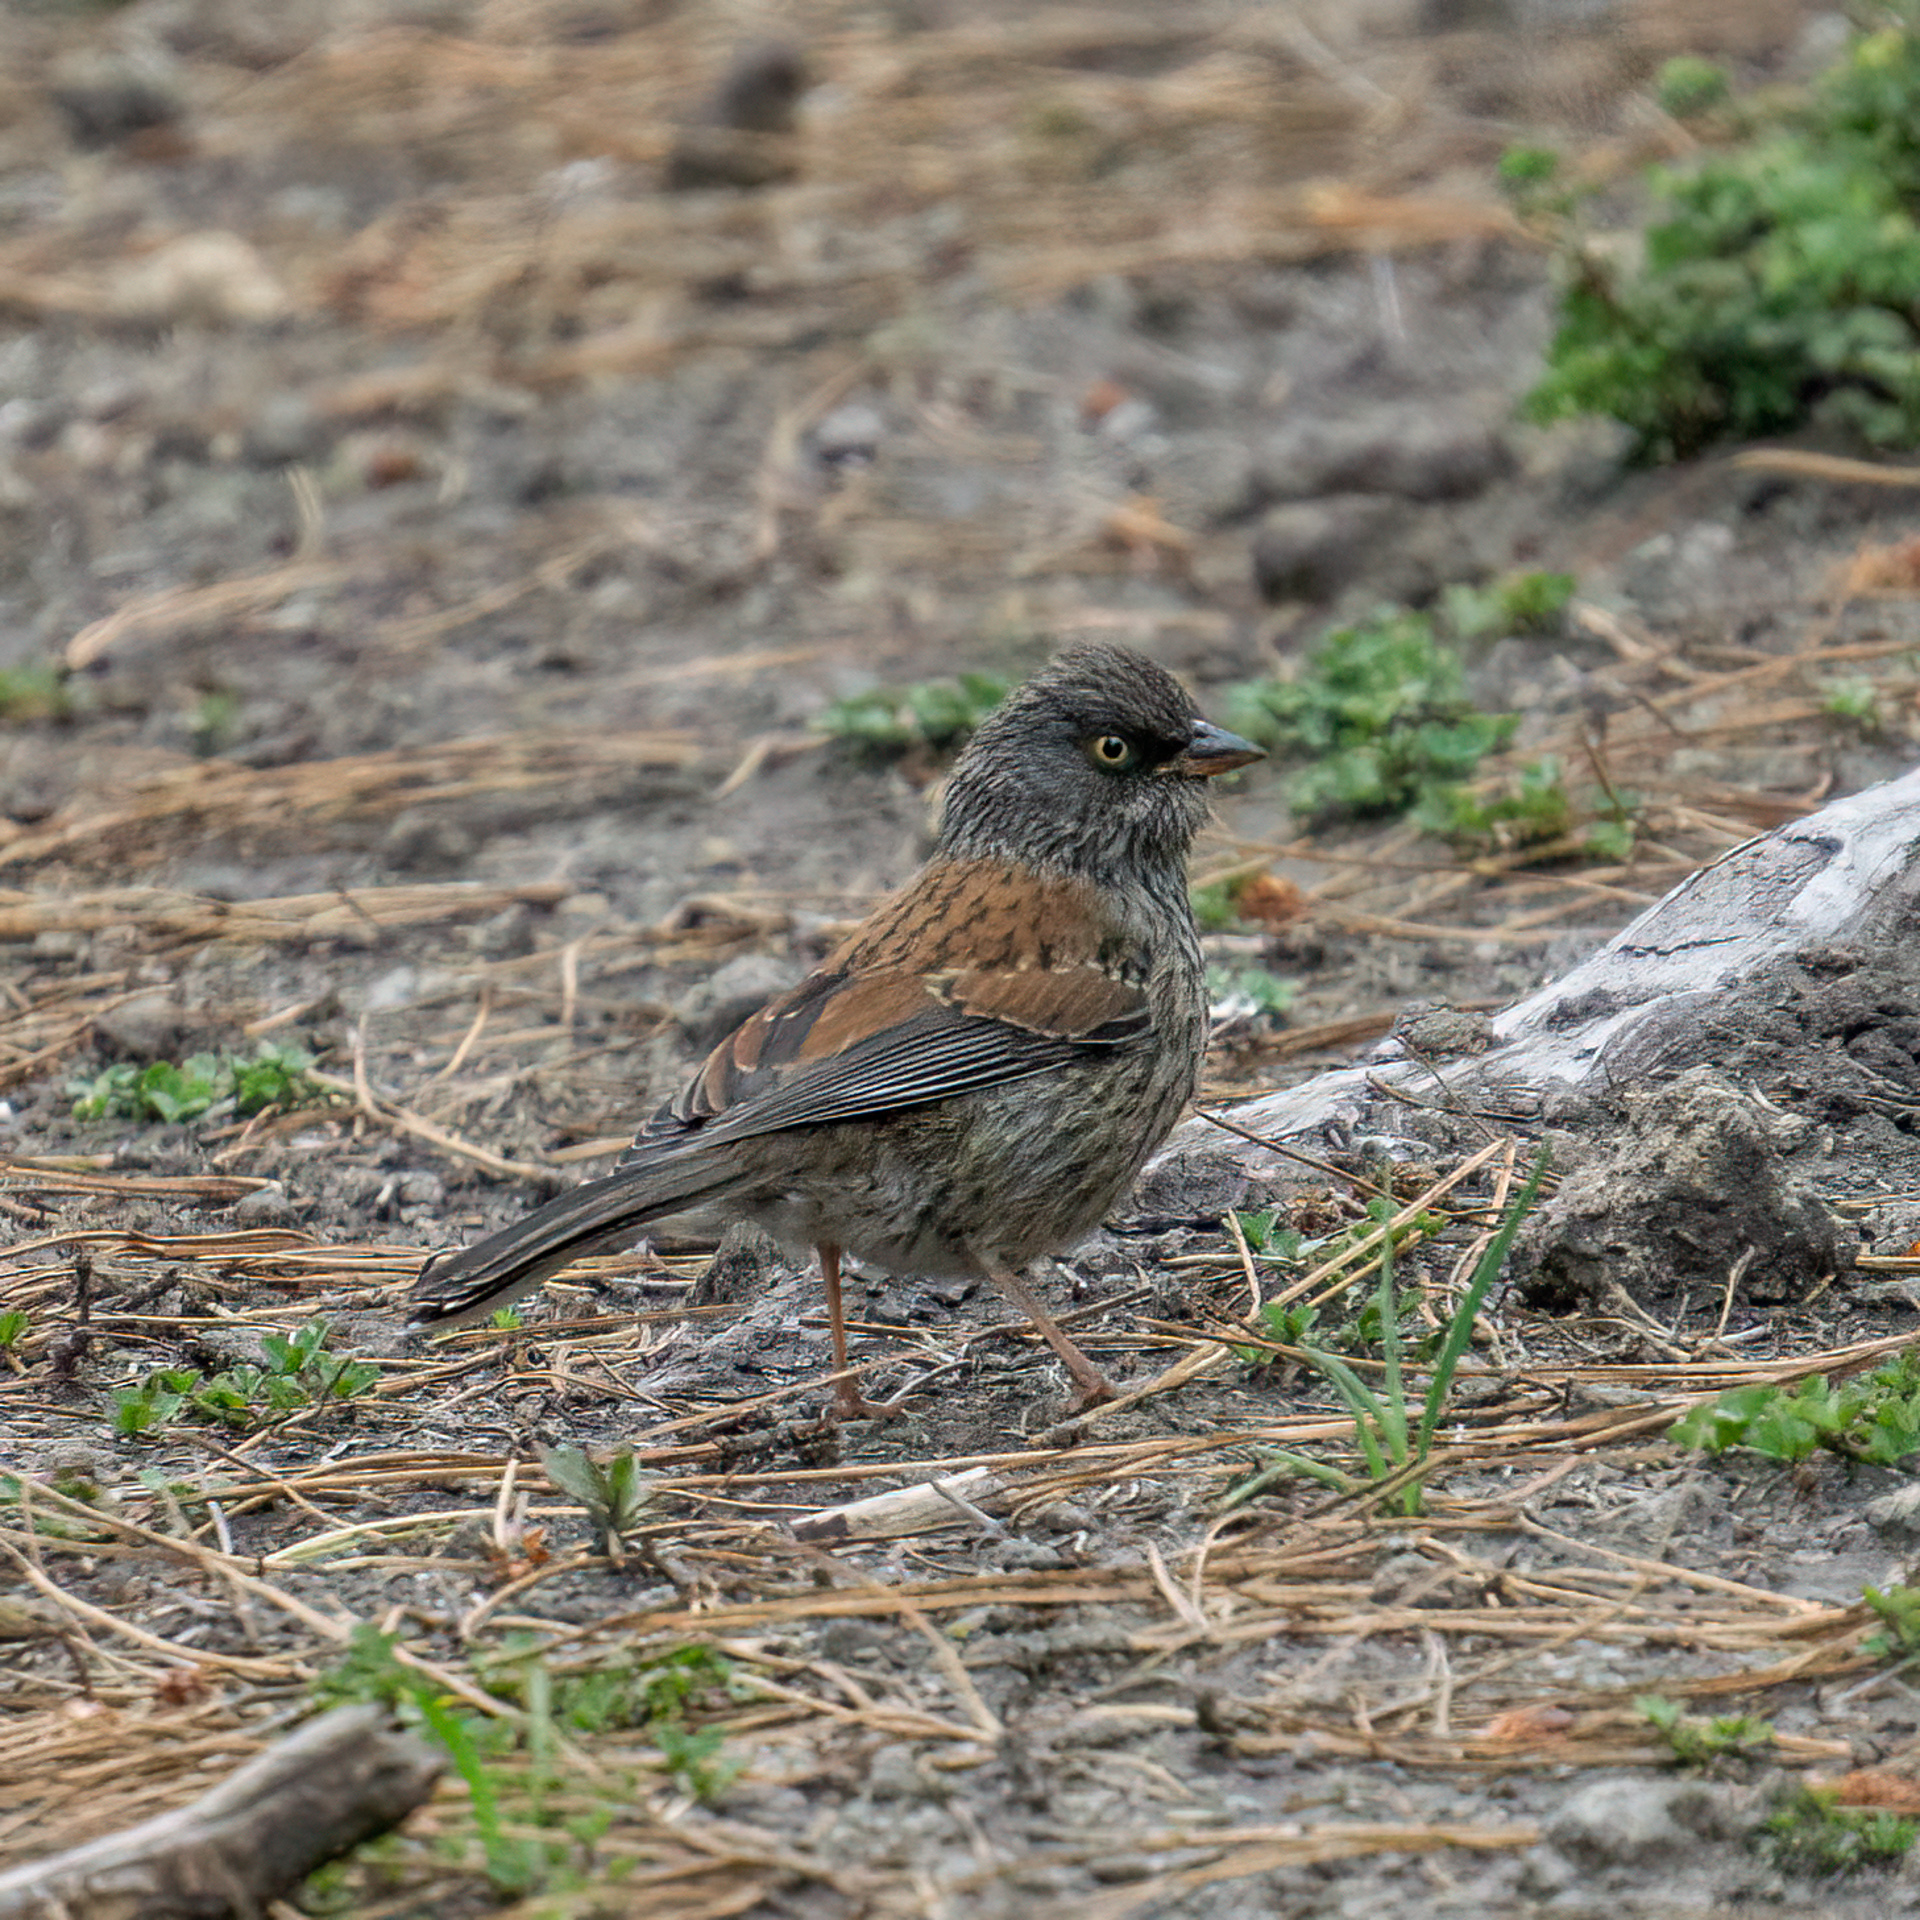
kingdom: Animalia
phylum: Chordata
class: Aves
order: Passeriformes
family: Passerellidae
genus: Junco
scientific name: Junco phaeonotus
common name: Yellow-eyed junco
